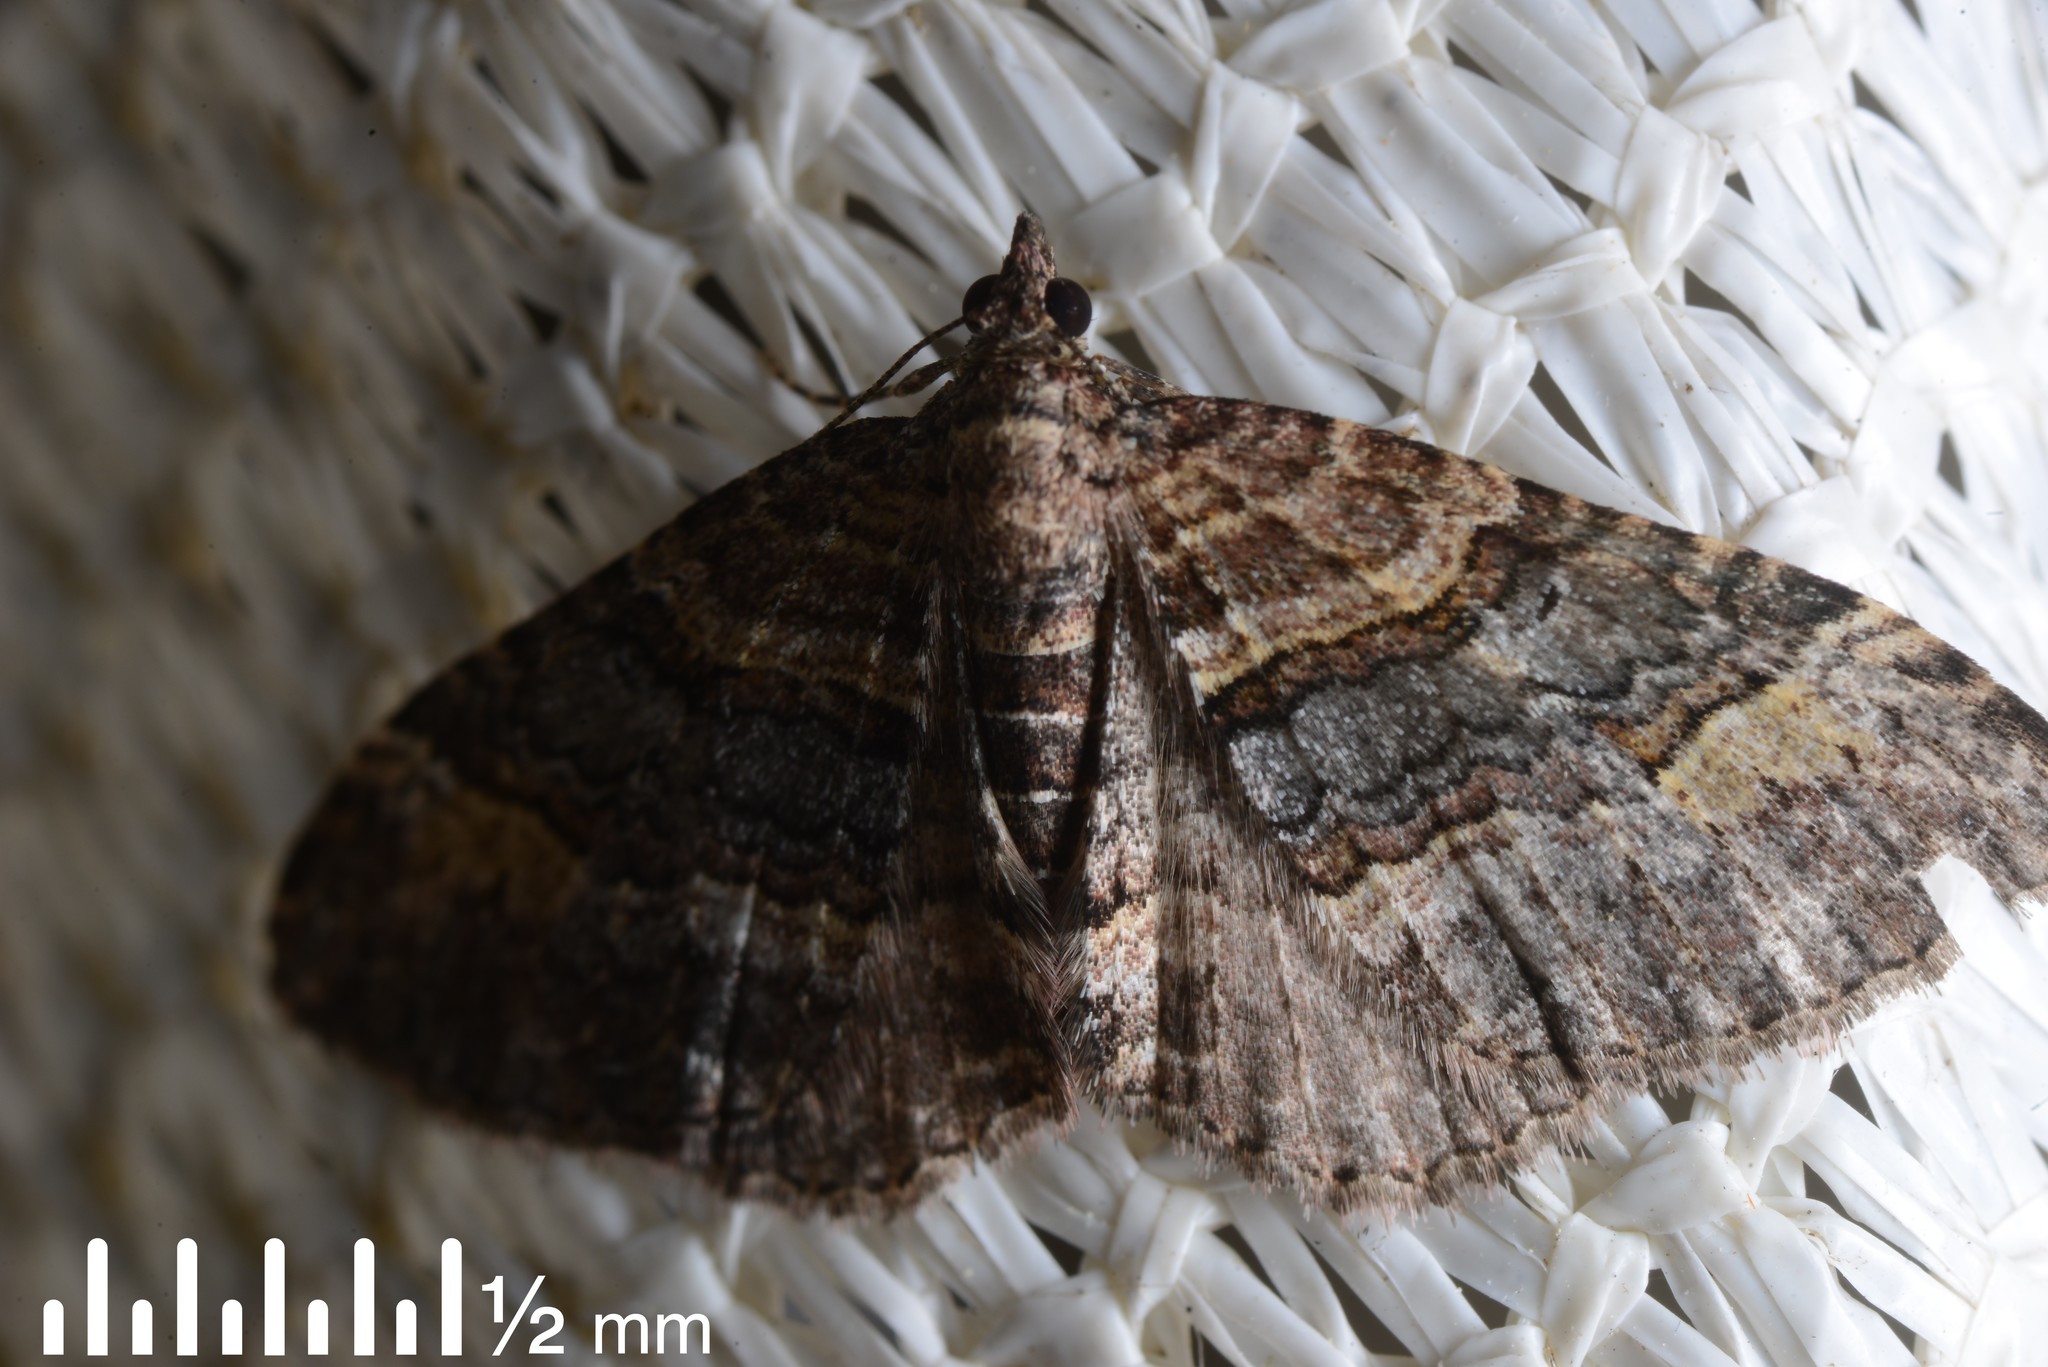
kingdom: Animalia
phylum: Arthropoda
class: Insecta
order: Lepidoptera
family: Geometridae
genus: Epyaxa
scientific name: Epyaxa lucidata
